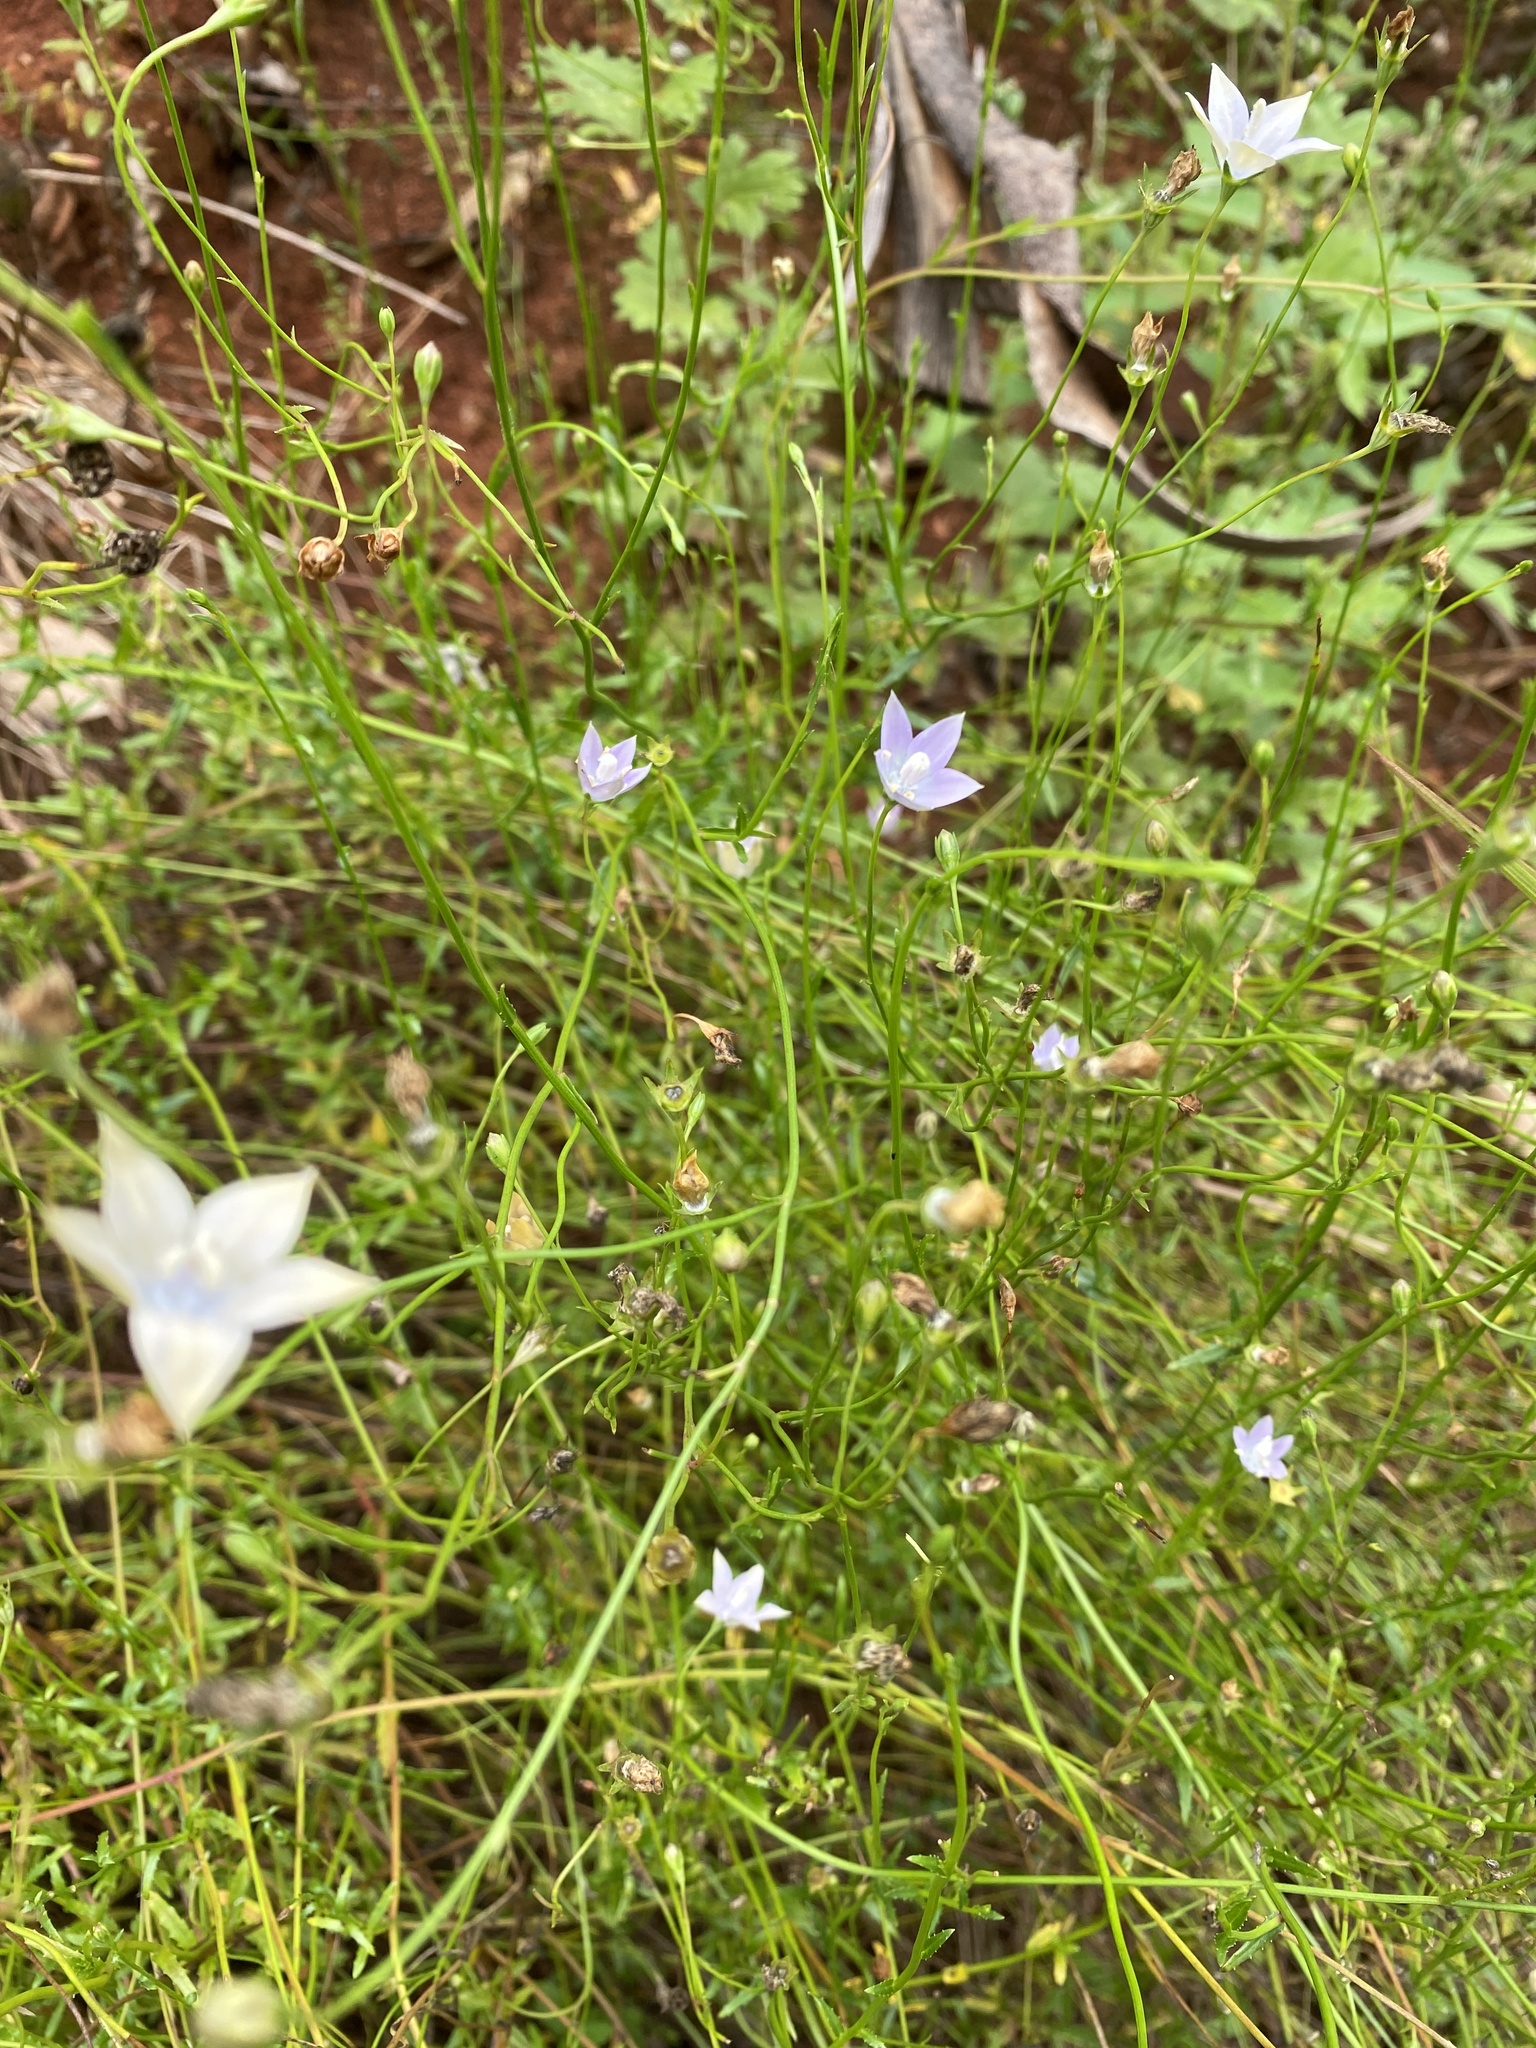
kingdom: Plantae
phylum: Tracheophyta
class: Magnoliopsida
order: Asterales
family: Campanulaceae
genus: Wahlenbergia
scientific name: Wahlenbergia virgata
